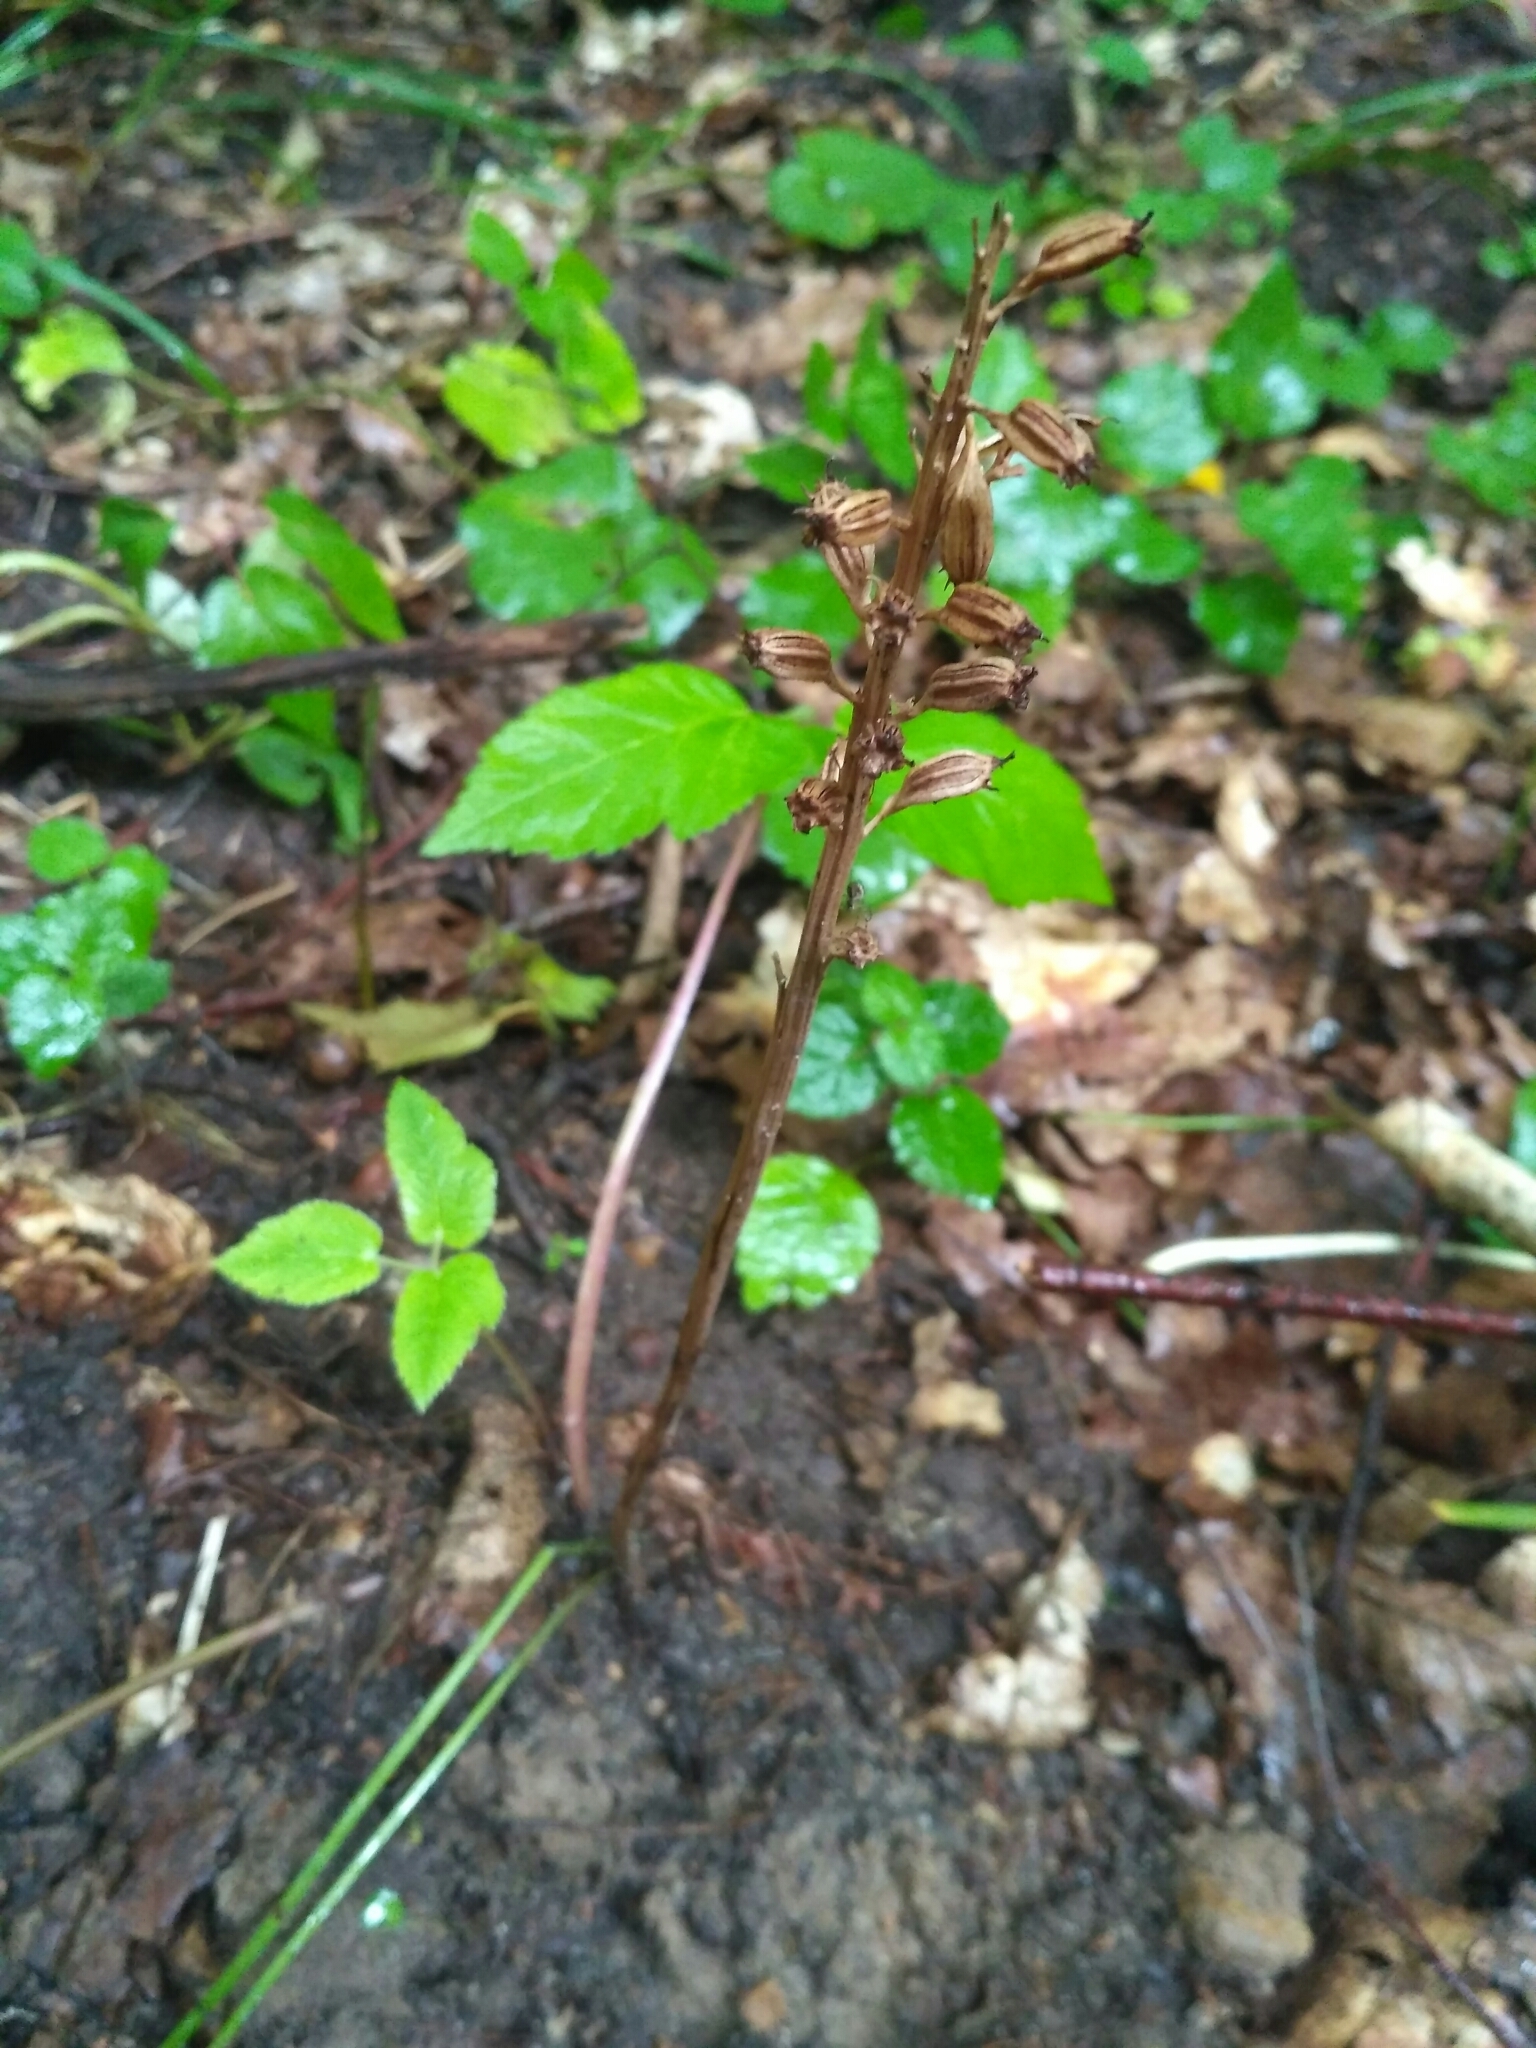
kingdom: Plantae
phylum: Tracheophyta
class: Liliopsida
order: Asparagales
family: Orchidaceae
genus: Neottia
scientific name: Neottia nidus-avis
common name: Bird's-nest orchid
